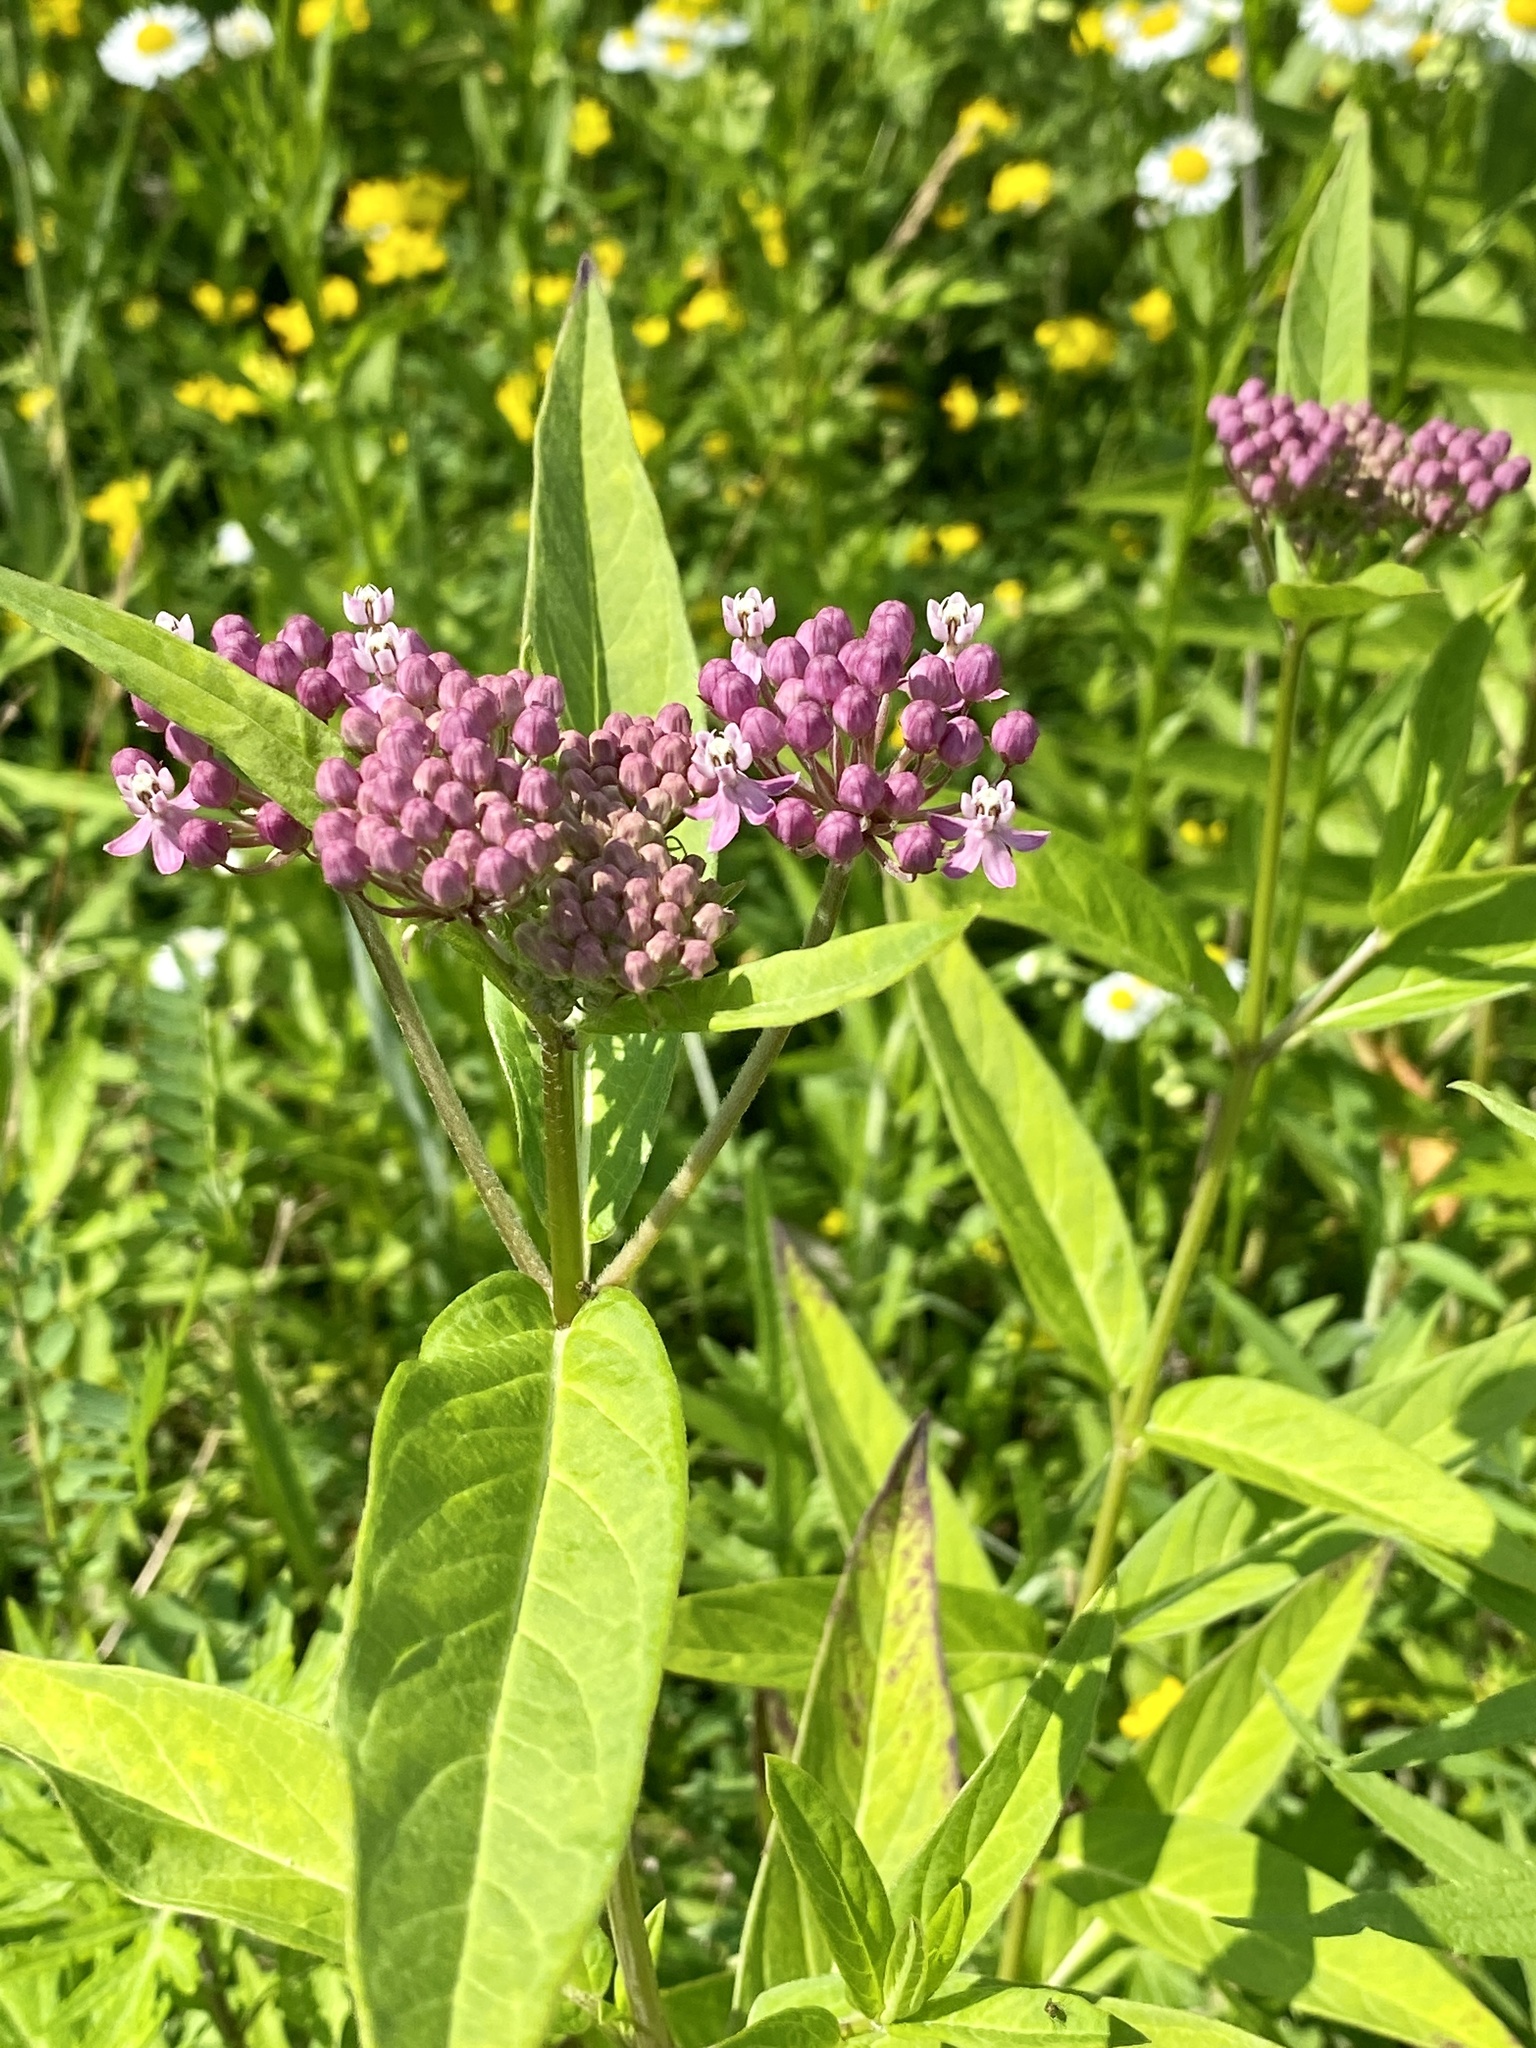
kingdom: Plantae
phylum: Tracheophyta
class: Magnoliopsida
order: Gentianales
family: Apocynaceae
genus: Asclepias
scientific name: Asclepias incarnata
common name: Swamp milkweed
